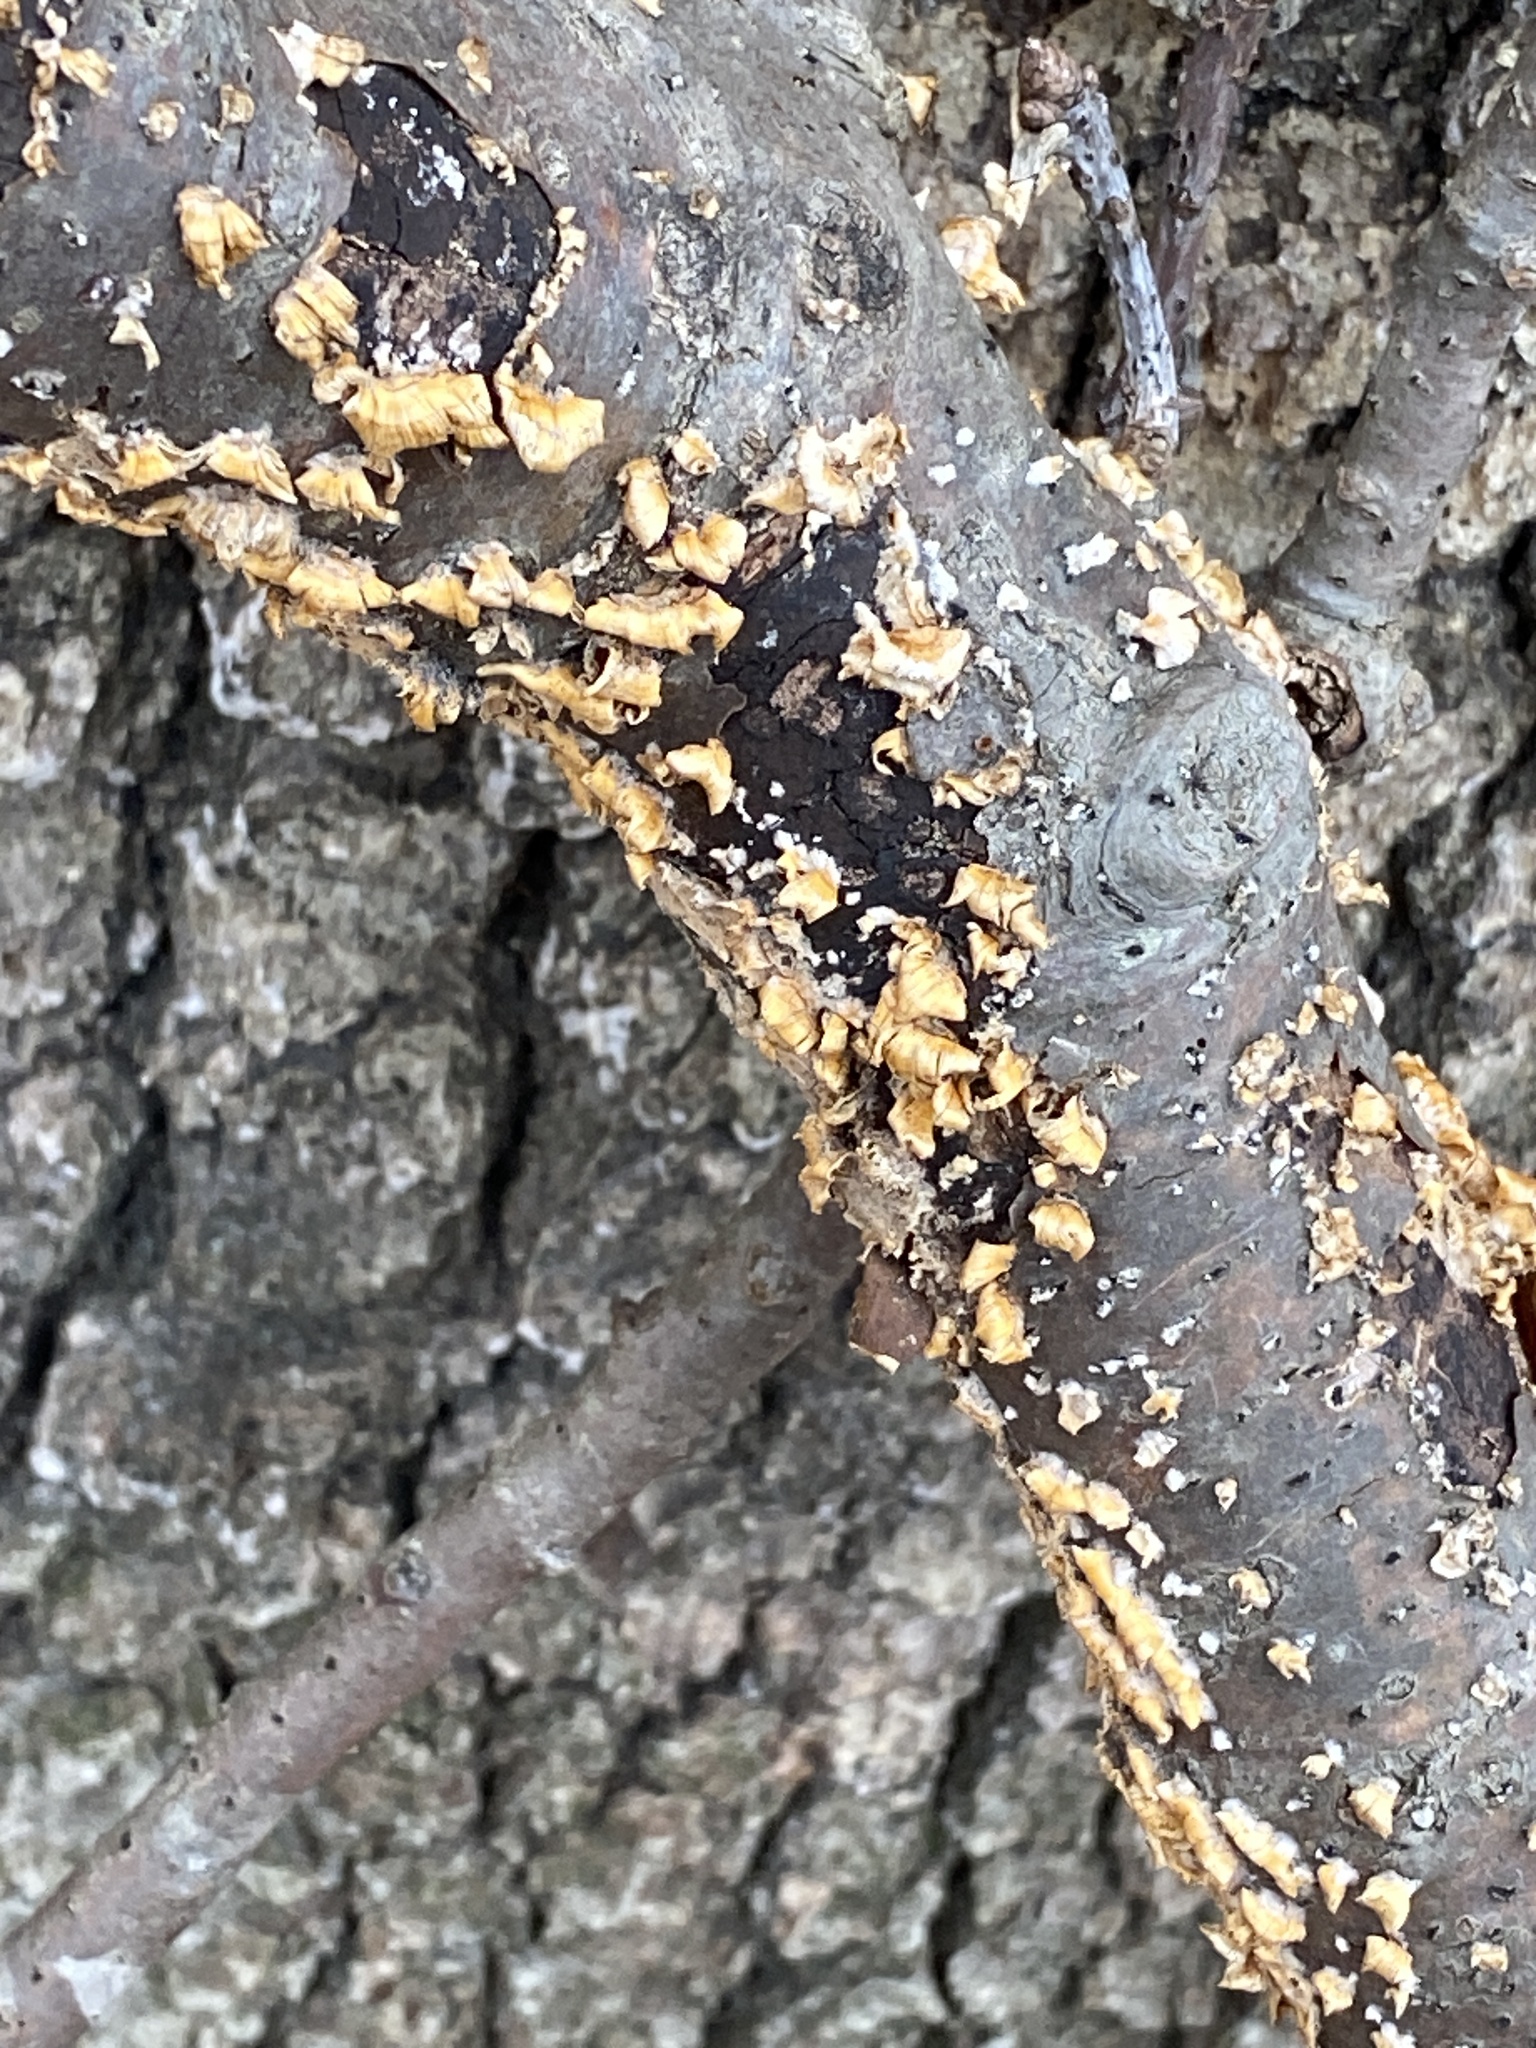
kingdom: Fungi
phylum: Basidiomycota
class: Agaricomycetes
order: Russulales
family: Stereaceae
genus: Stereum
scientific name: Stereum complicatum
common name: Crowded parchment
